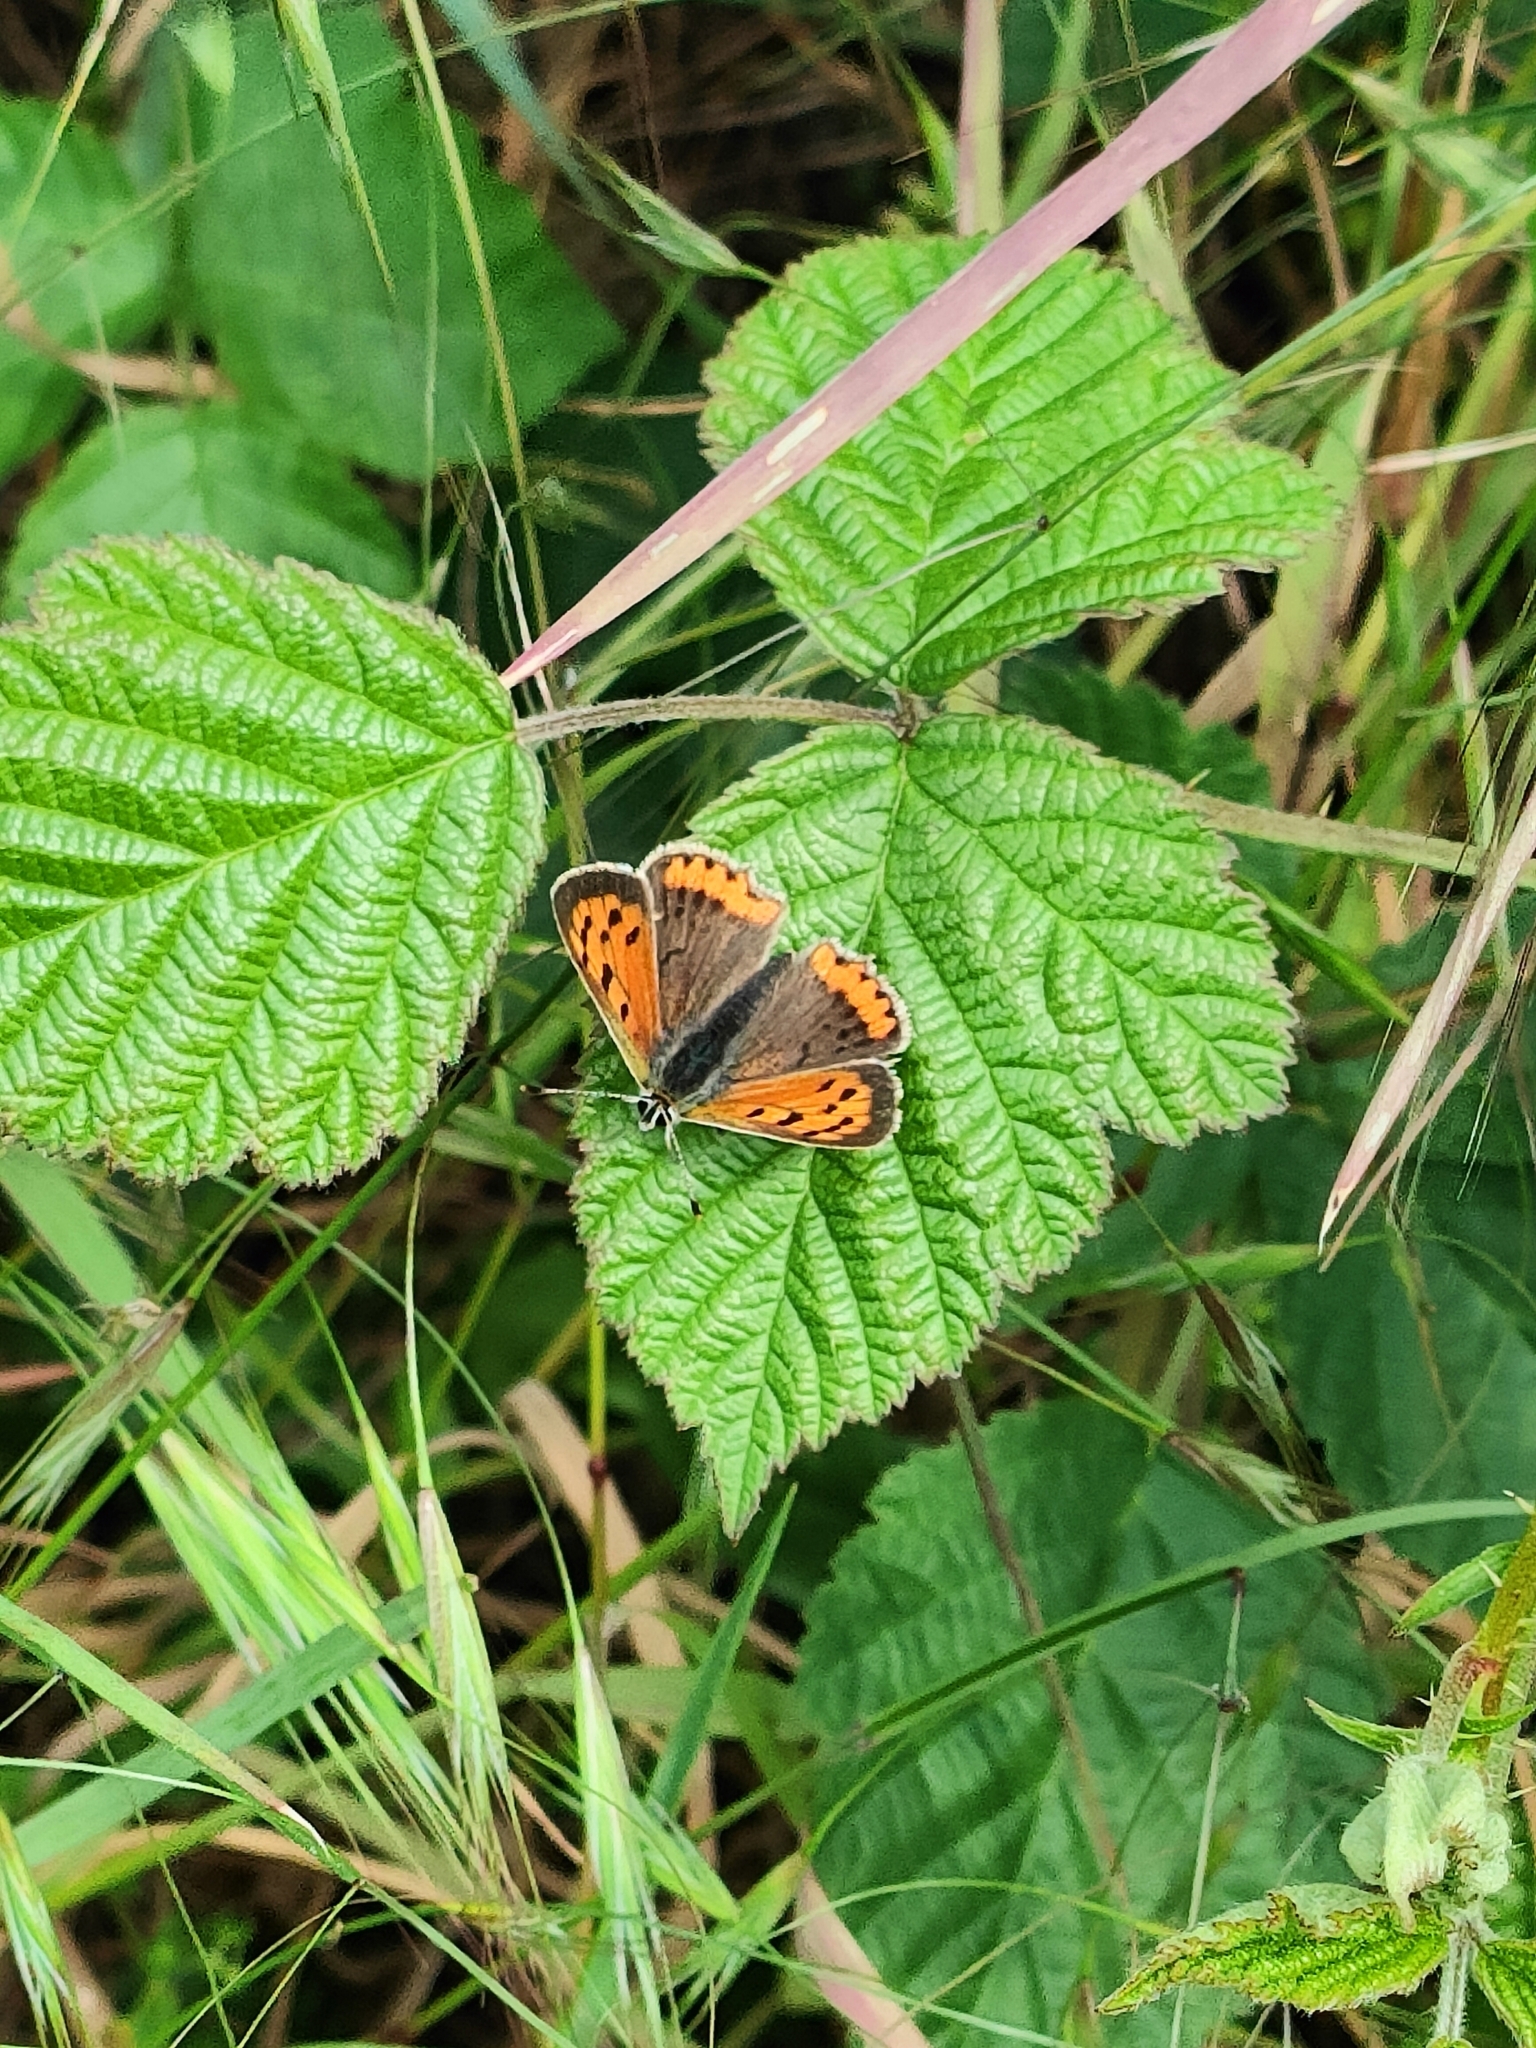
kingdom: Animalia
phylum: Arthropoda
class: Insecta
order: Lepidoptera
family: Lycaenidae
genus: Lycaena
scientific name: Lycaena phlaeas
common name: Small copper
